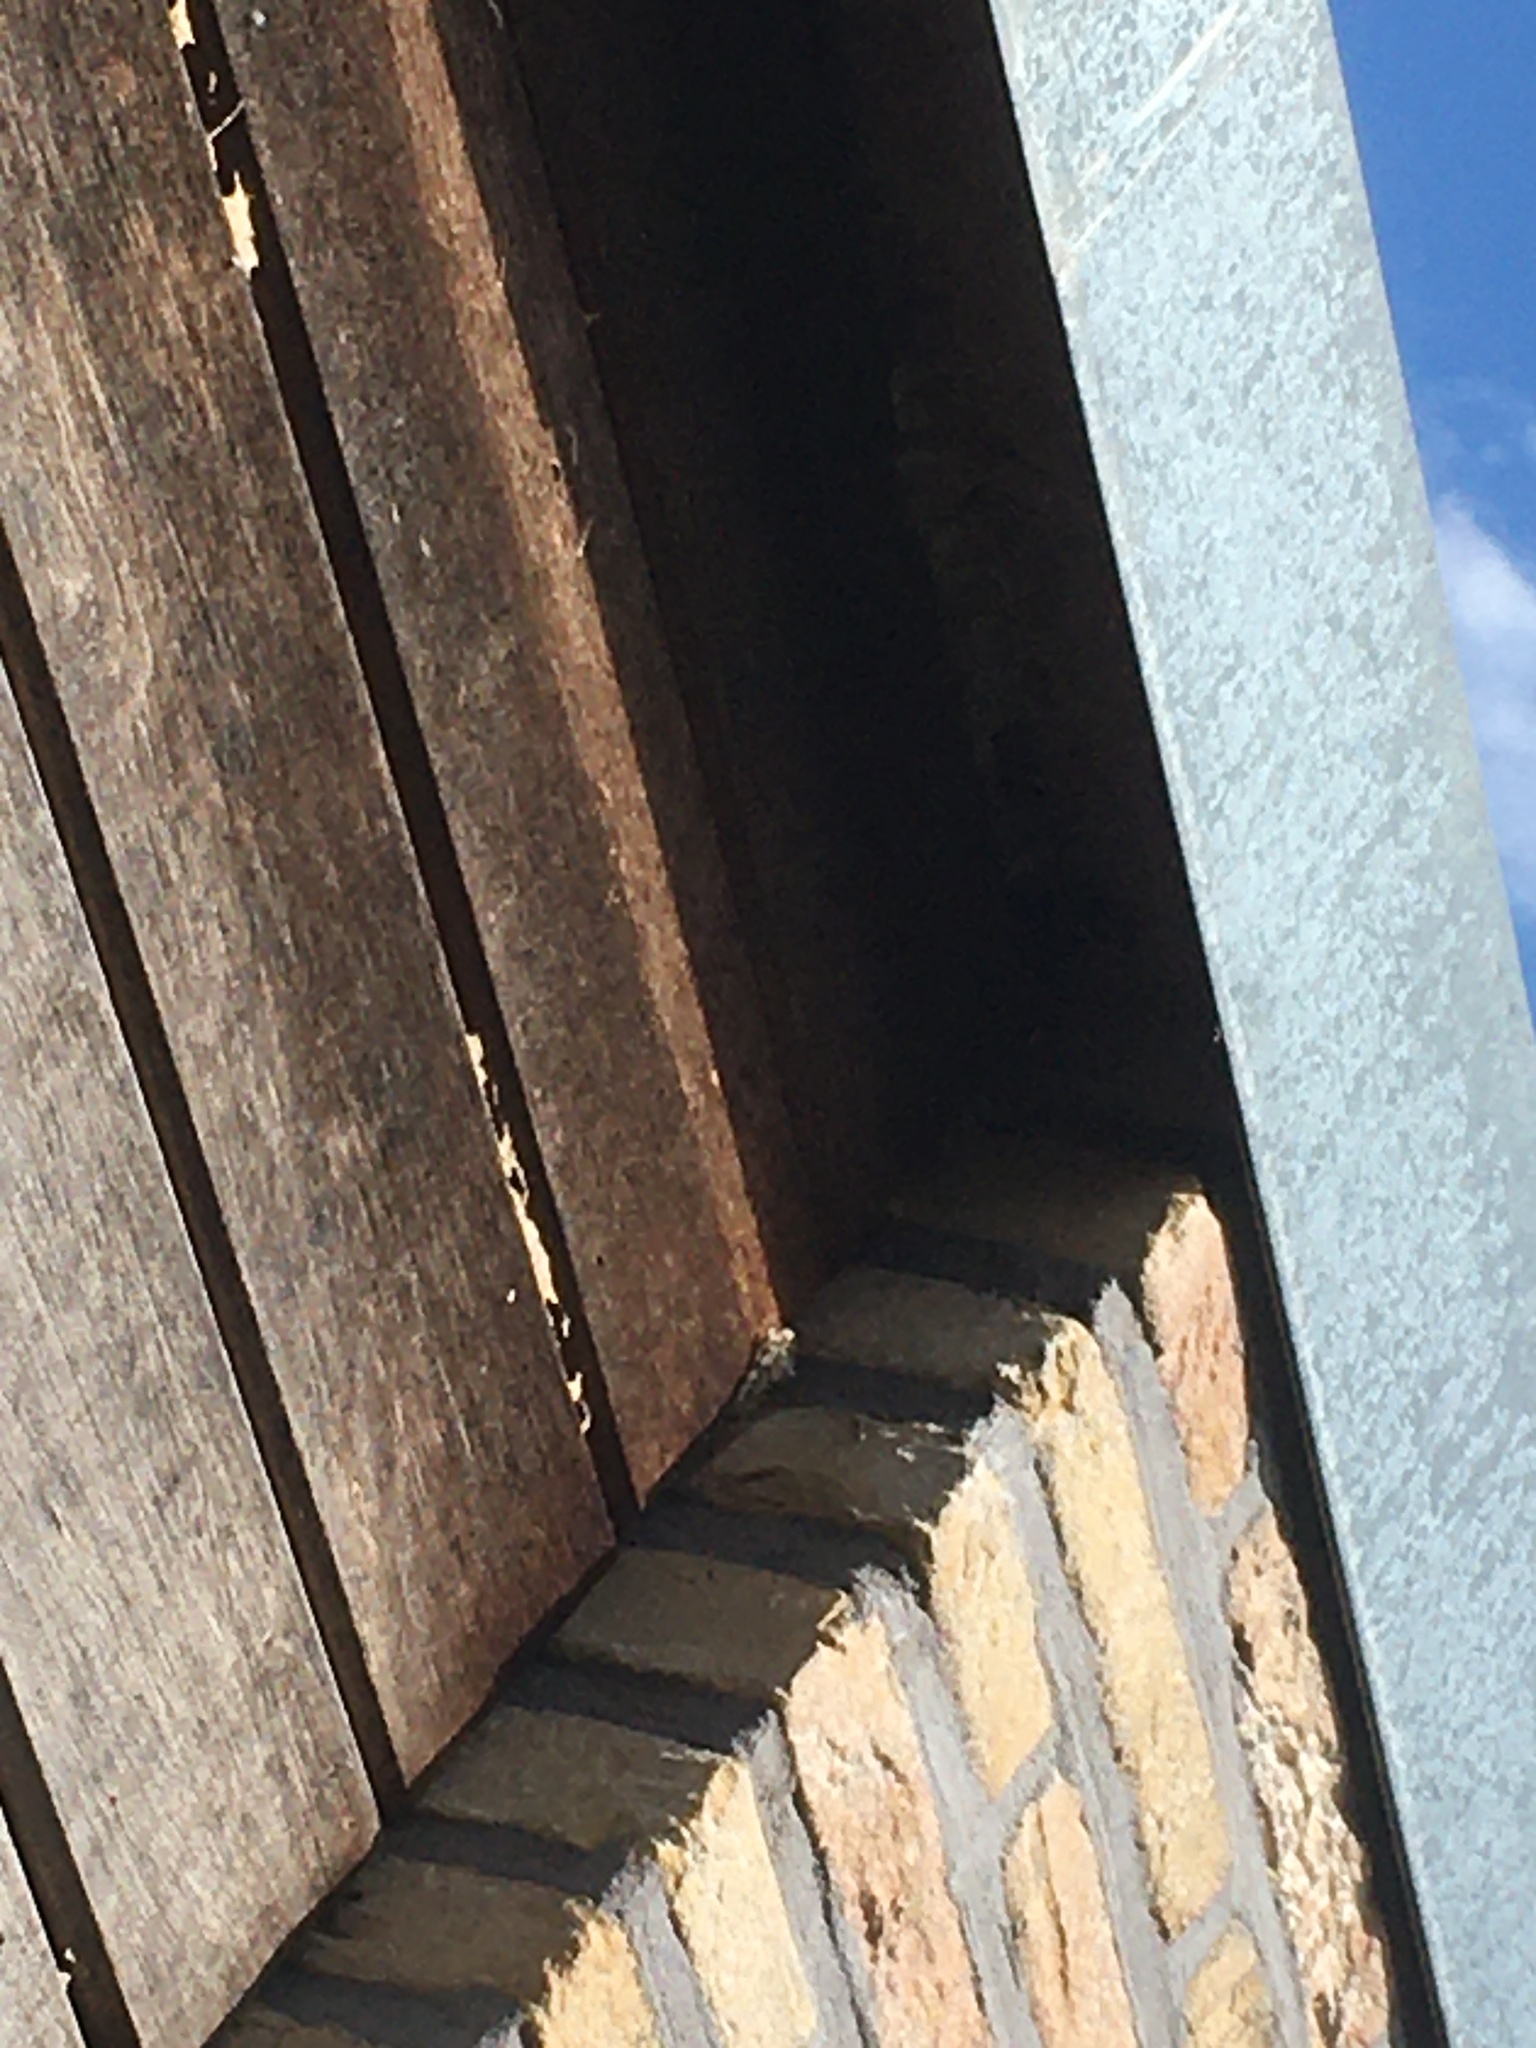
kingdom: Animalia
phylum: Arthropoda
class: Insecta
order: Hymenoptera
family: Vespidae
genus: Vespa
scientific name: Vespa velutina
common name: Asian hornet
